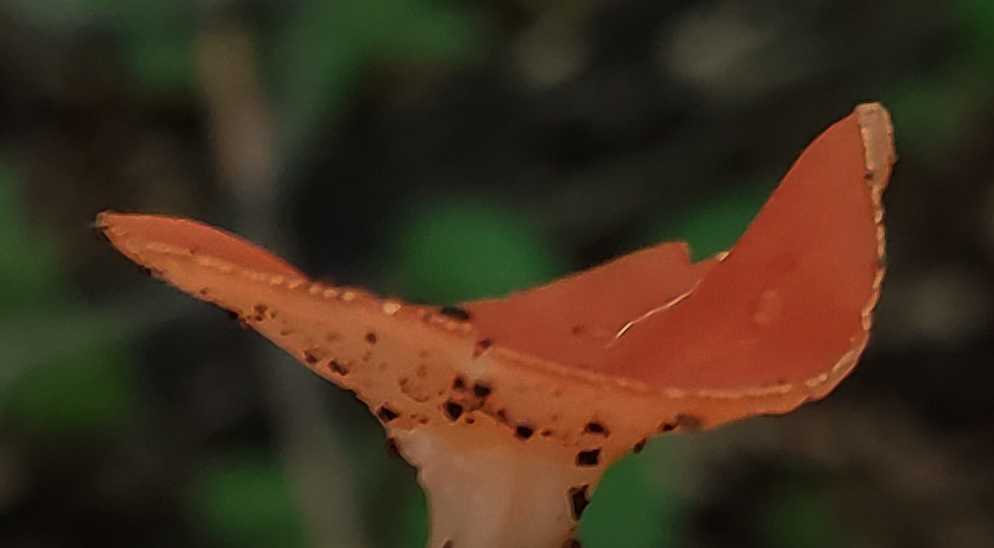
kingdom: Fungi
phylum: Ascomycota
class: Pezizomycetes
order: Pezizales
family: Sarcoscyphaceae
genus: Sarcoscypha
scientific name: Sarcoscypha occidentalis
